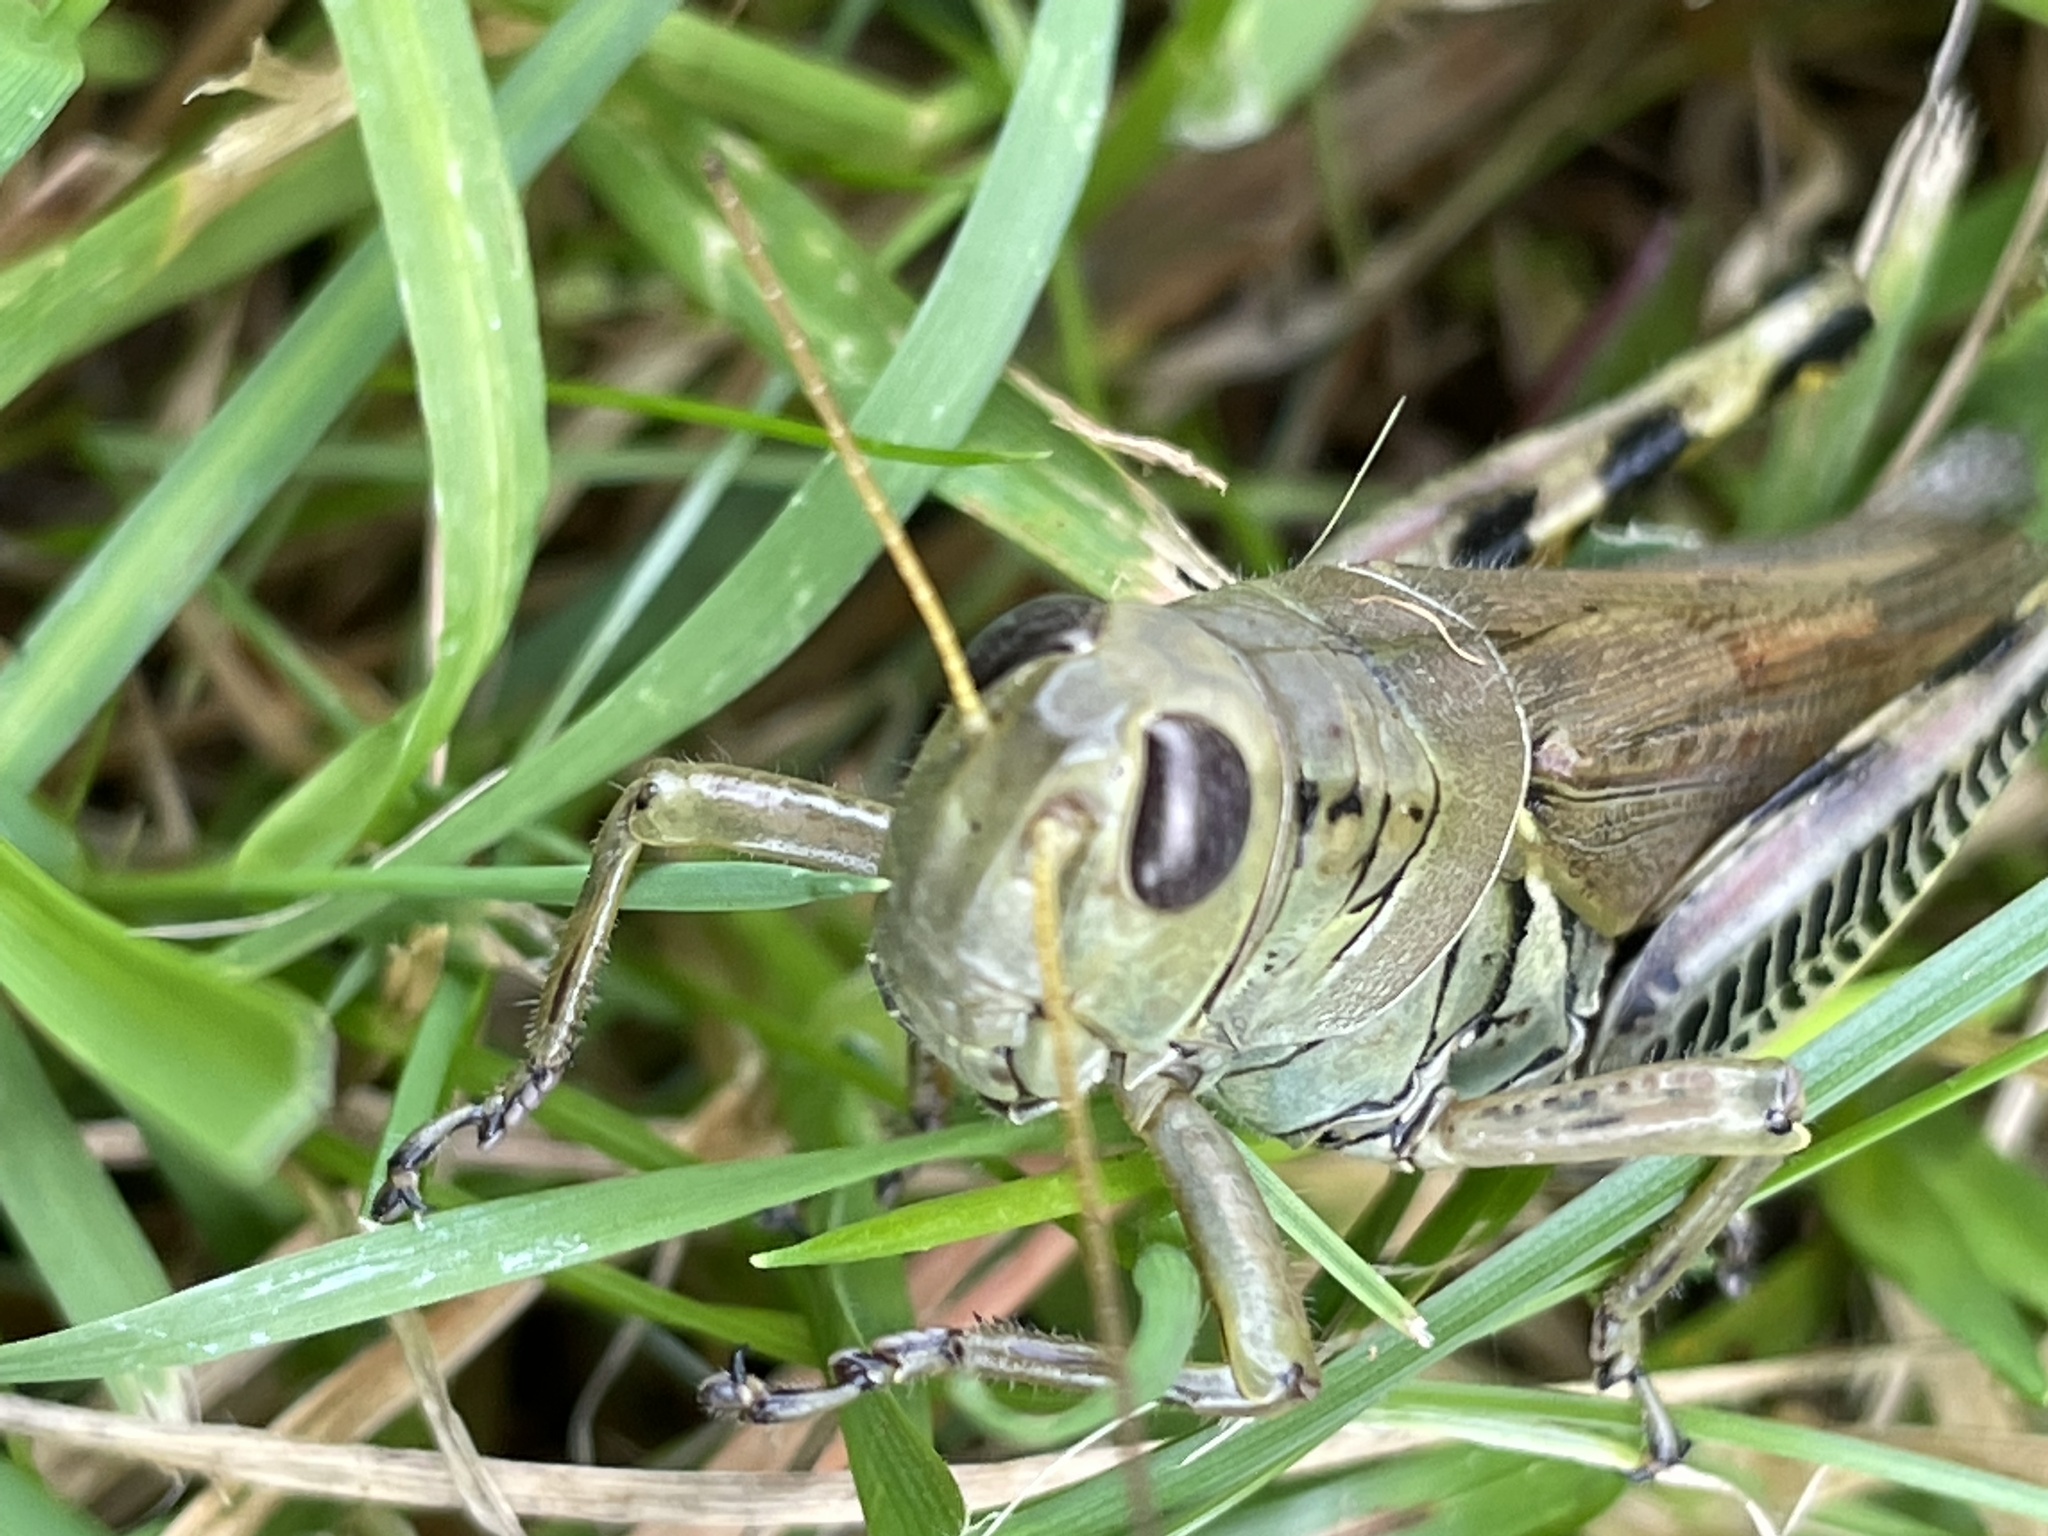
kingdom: Animalia
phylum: Arthropoda
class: Insecta
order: Orthoptera
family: Acrididae
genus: Melanoplus
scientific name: Melanoplus differentialis
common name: Differential grasshopper
